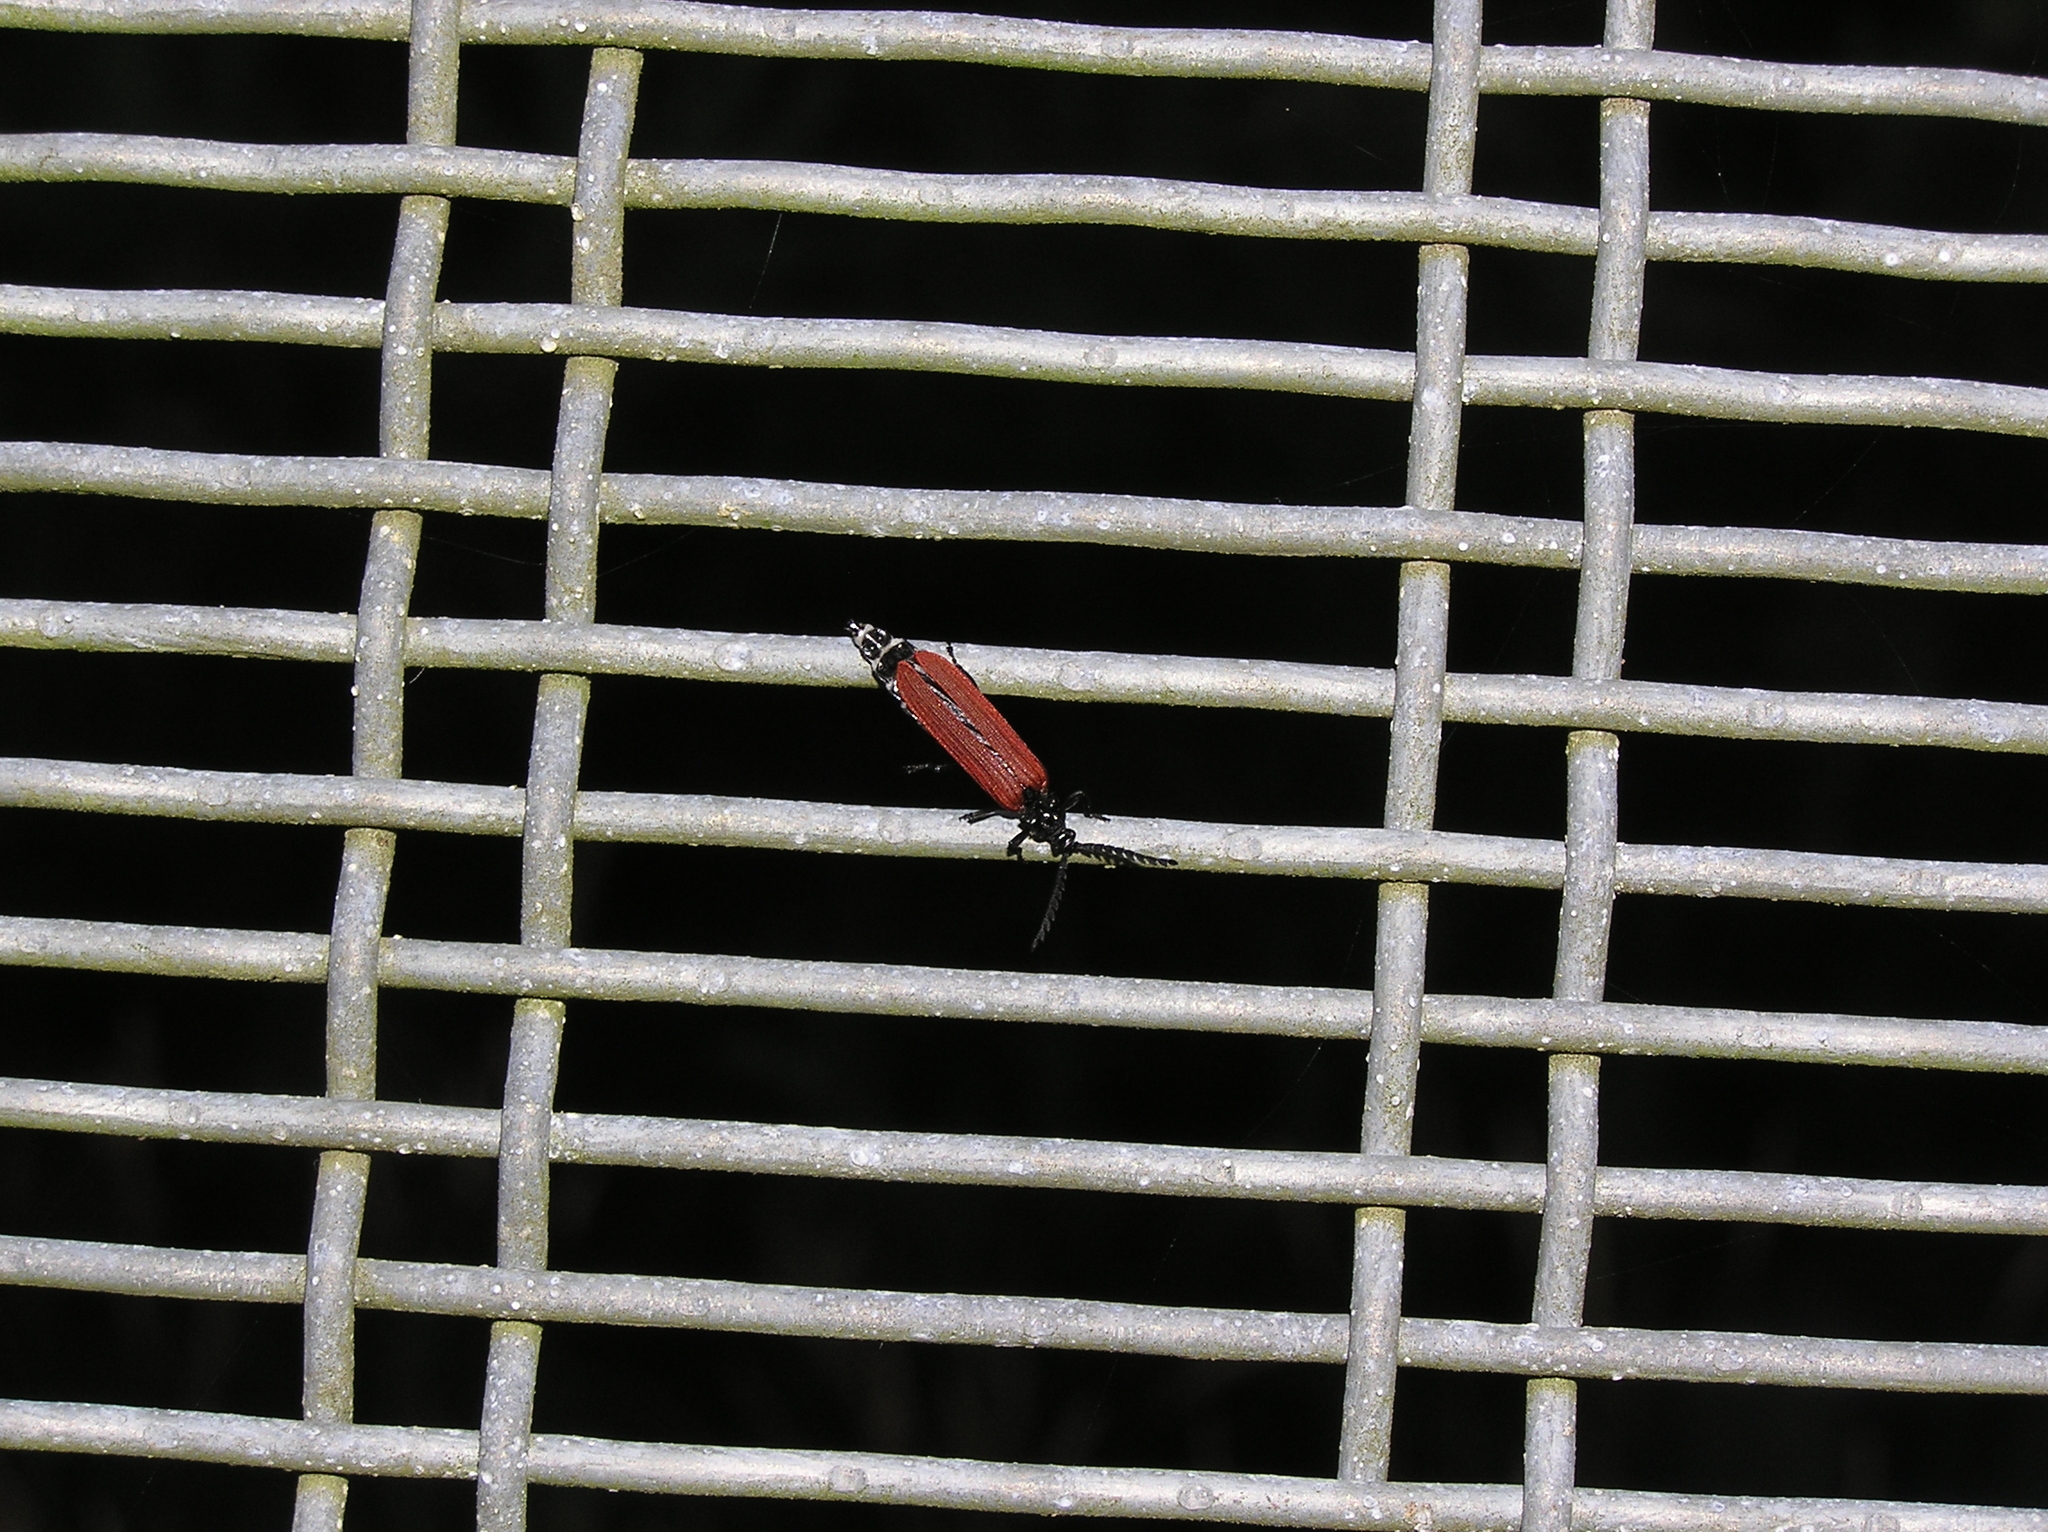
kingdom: Animalia
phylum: Arthropoda
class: Insecta
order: Coleoptera
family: Lycidae
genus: Porrostoma
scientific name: Porrostoma rufipenne
